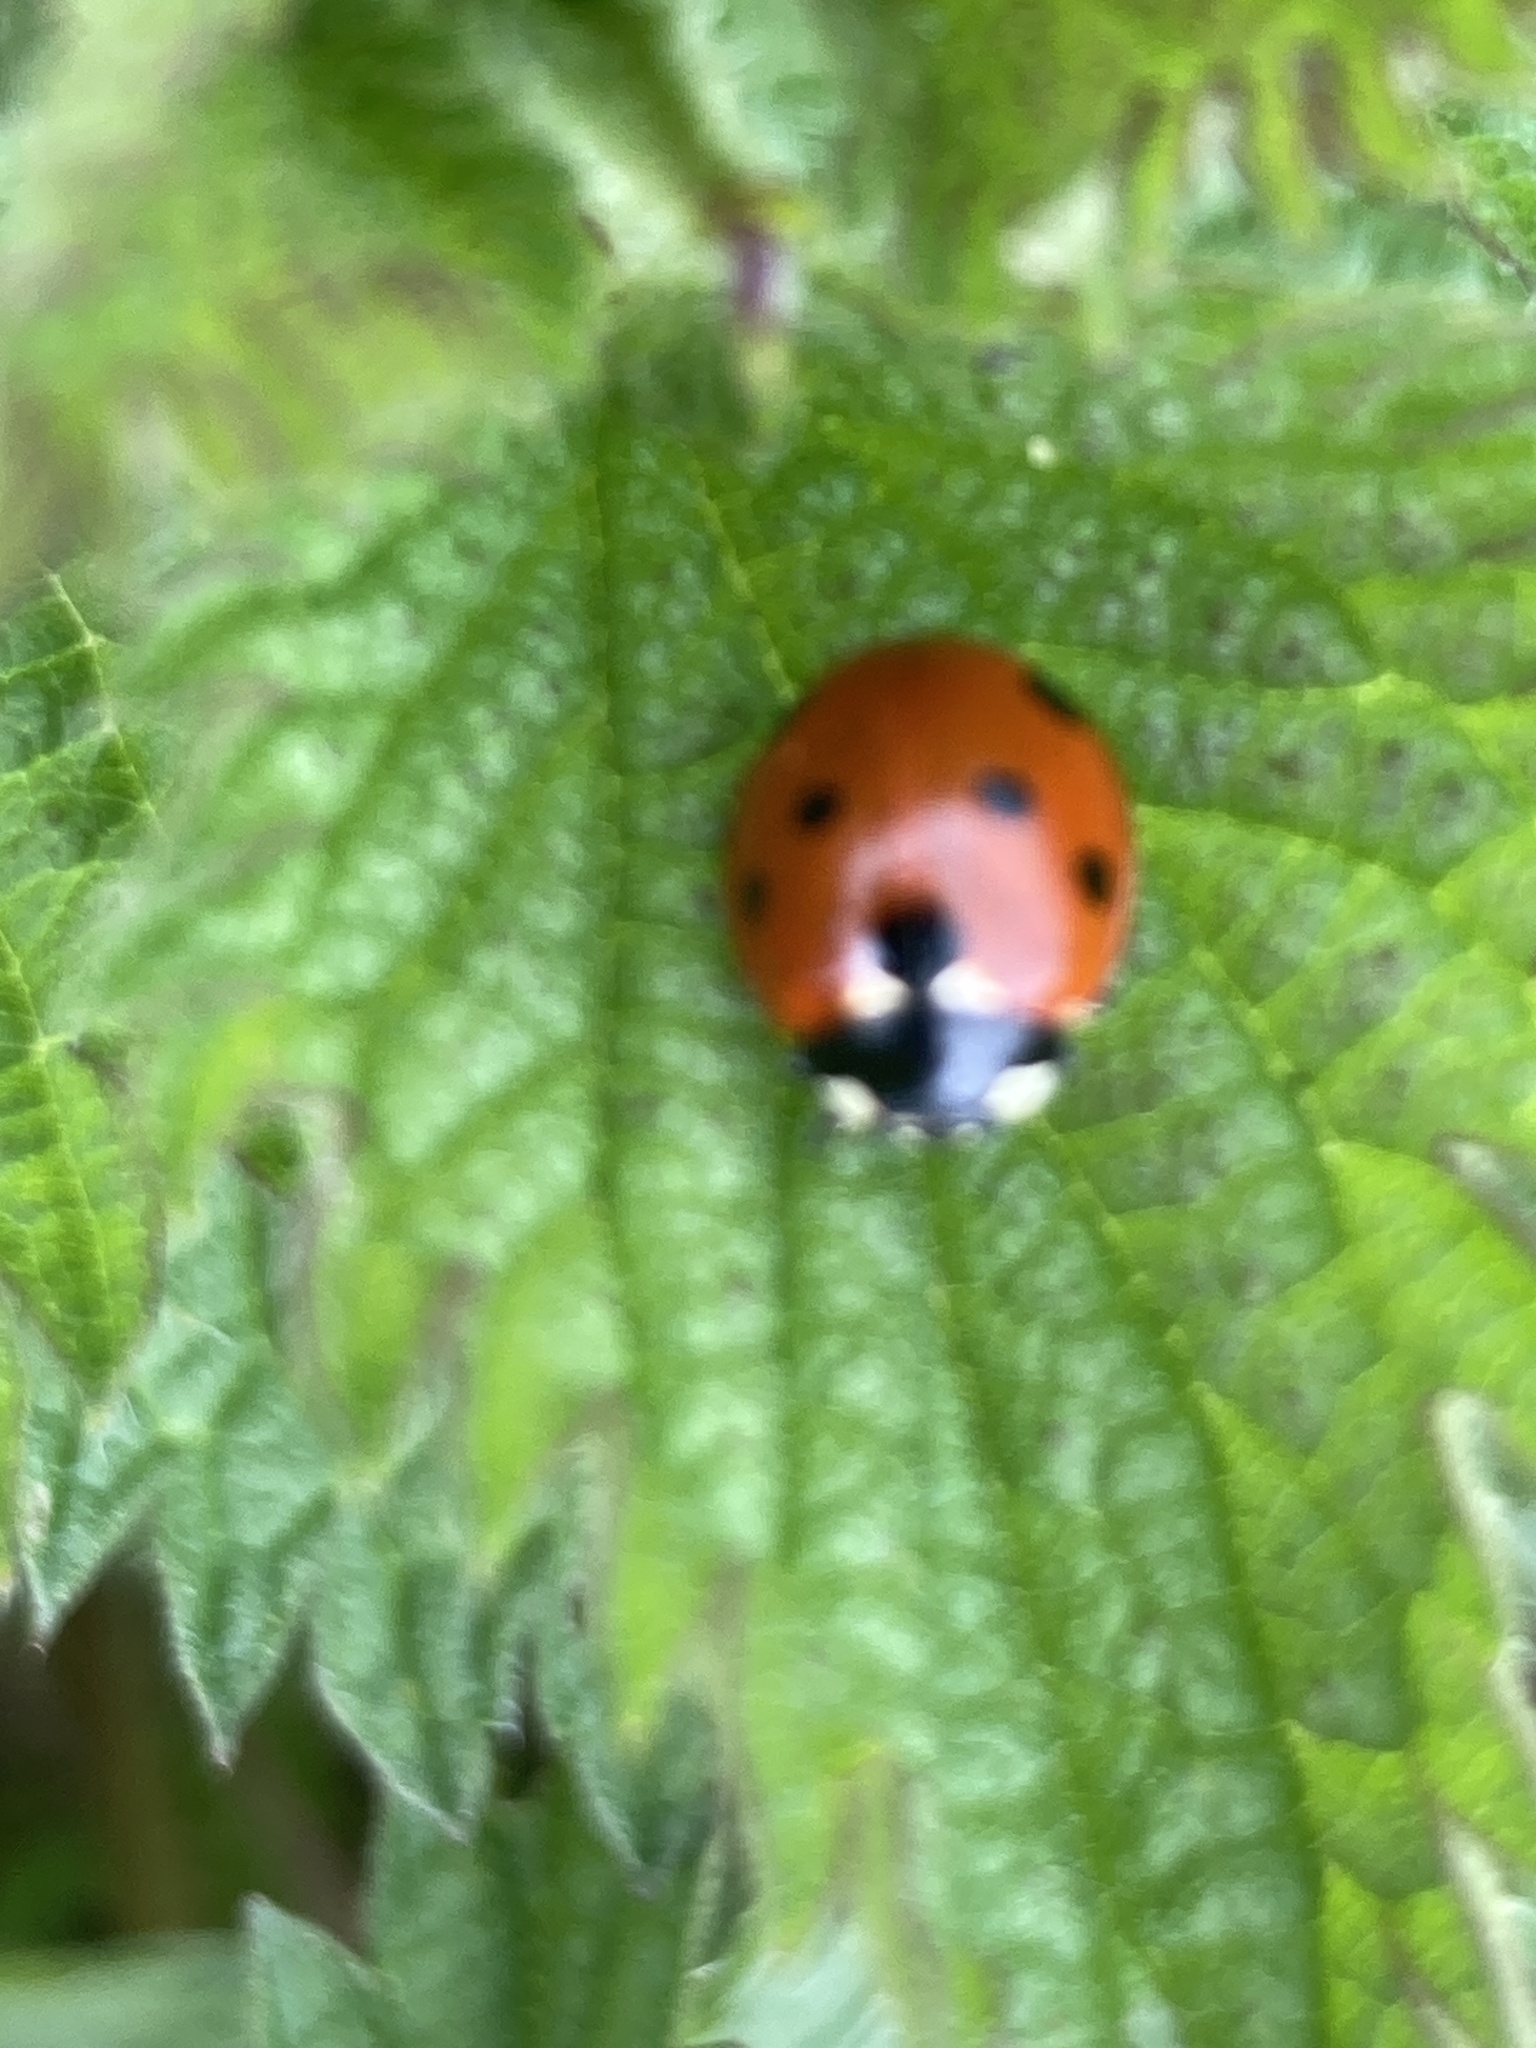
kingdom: Animalia
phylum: Arthropoda
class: Insecta
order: Coleoptera
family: Coccinellidae
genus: Coccinella
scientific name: Coccinella septempunctata
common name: Sevenspotted lady beetle
